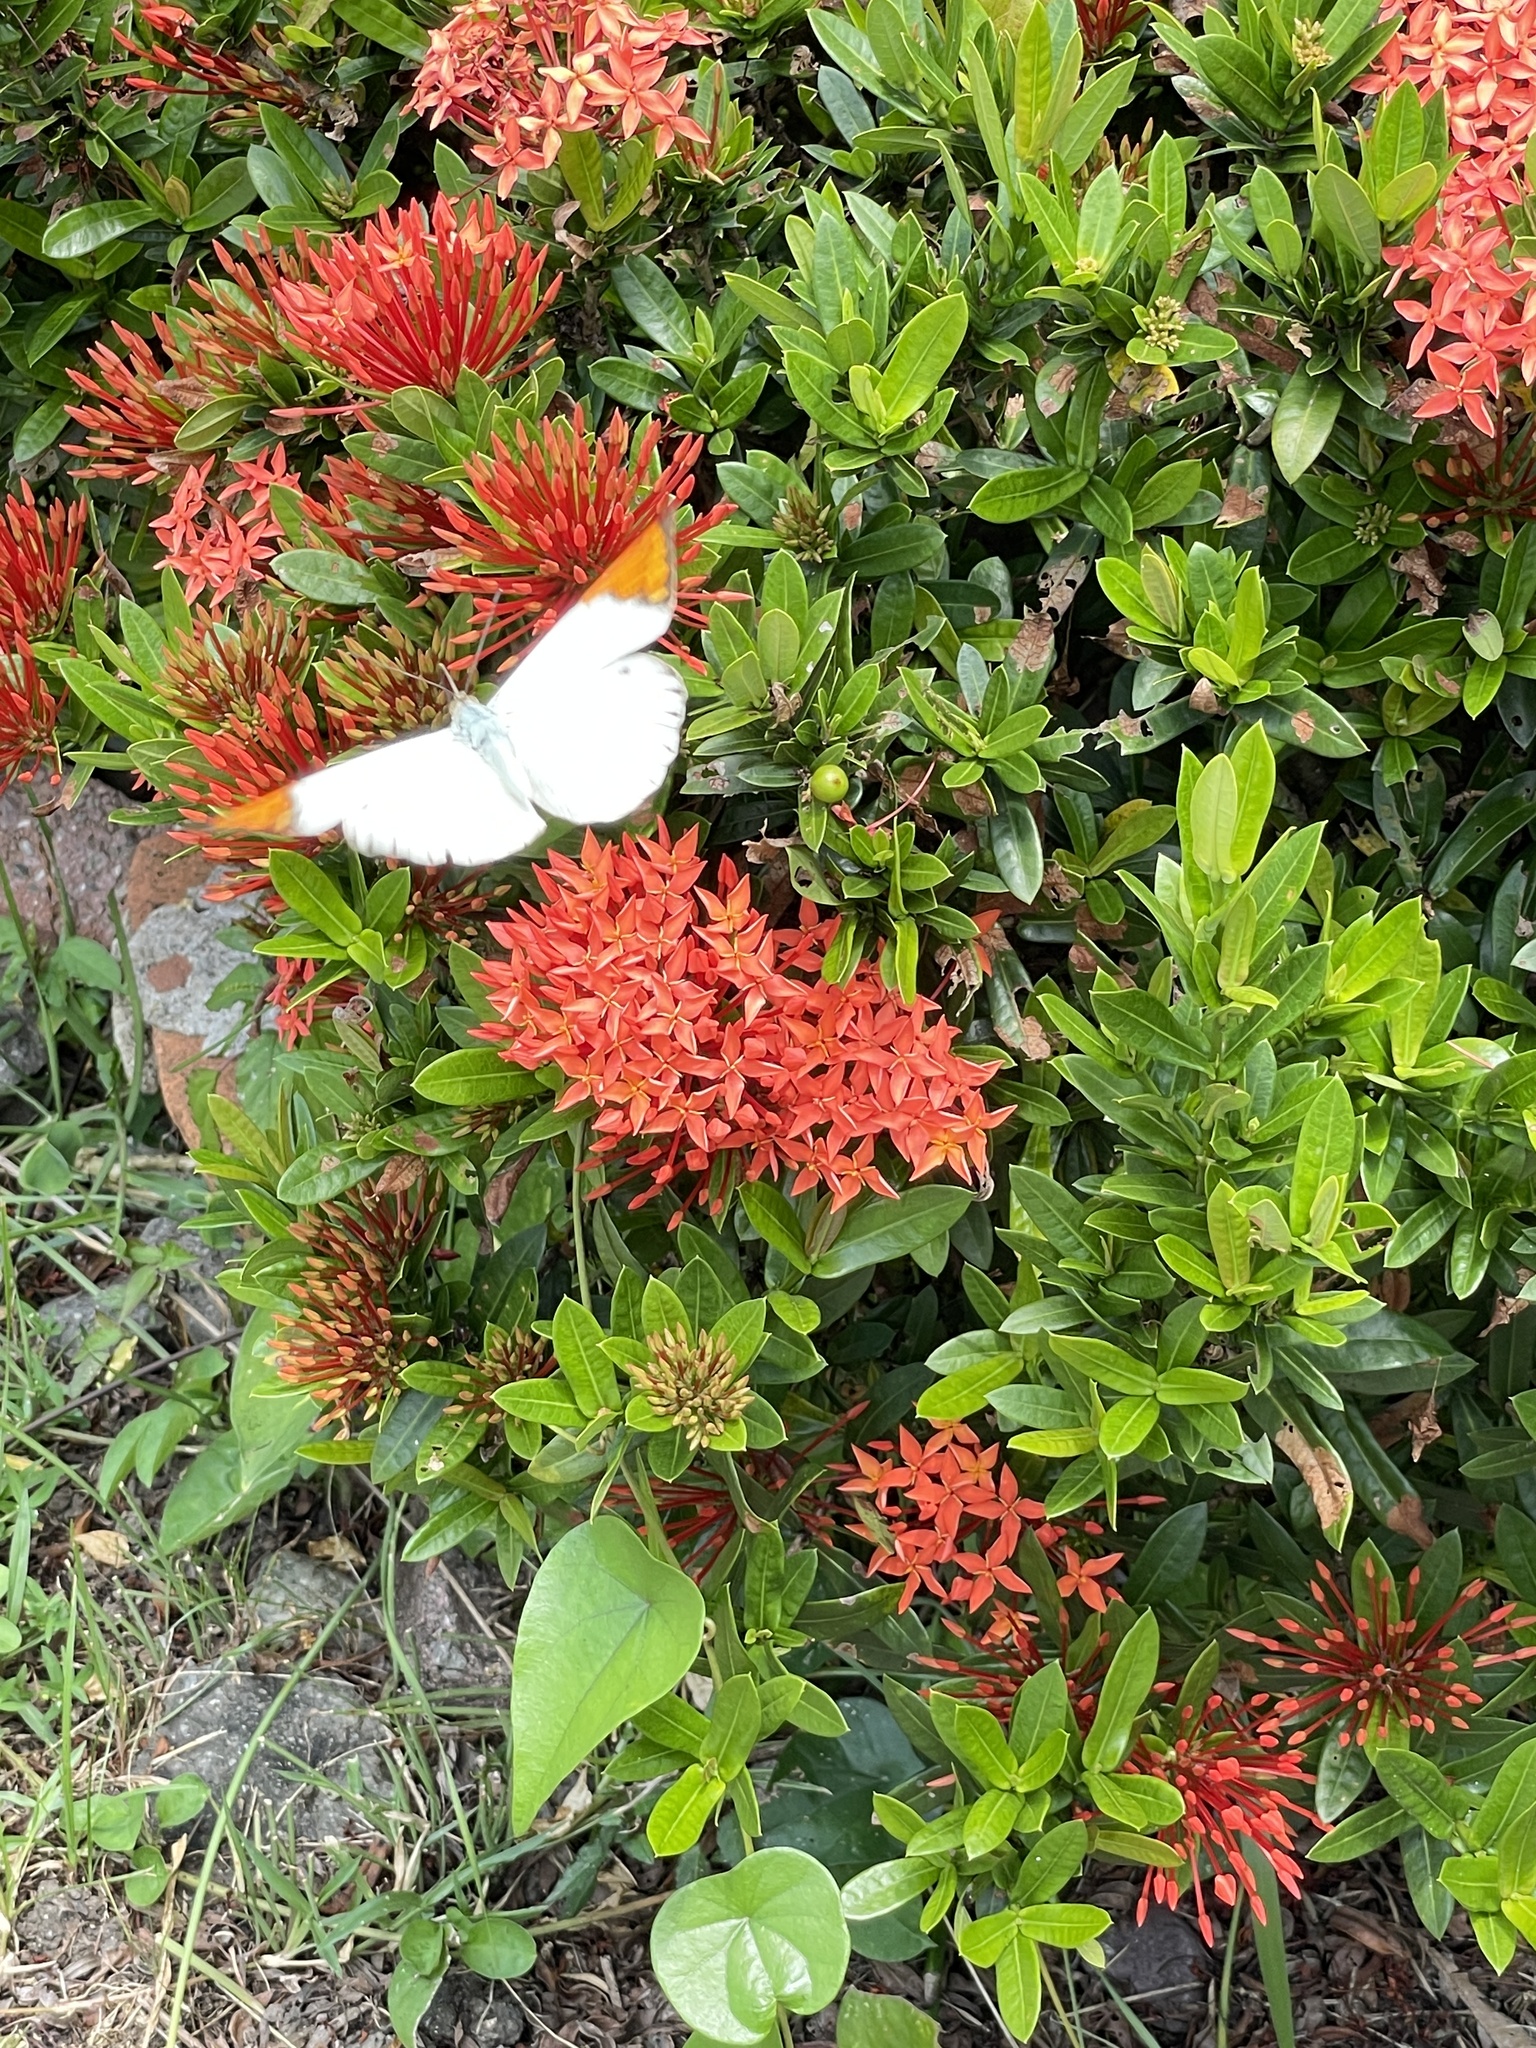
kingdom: Animalia
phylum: Arthropoda
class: Insecta
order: Lepidoptera
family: Pieridae
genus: Hebomoia
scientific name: Hebomoia glaucippe
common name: Great orange tip
